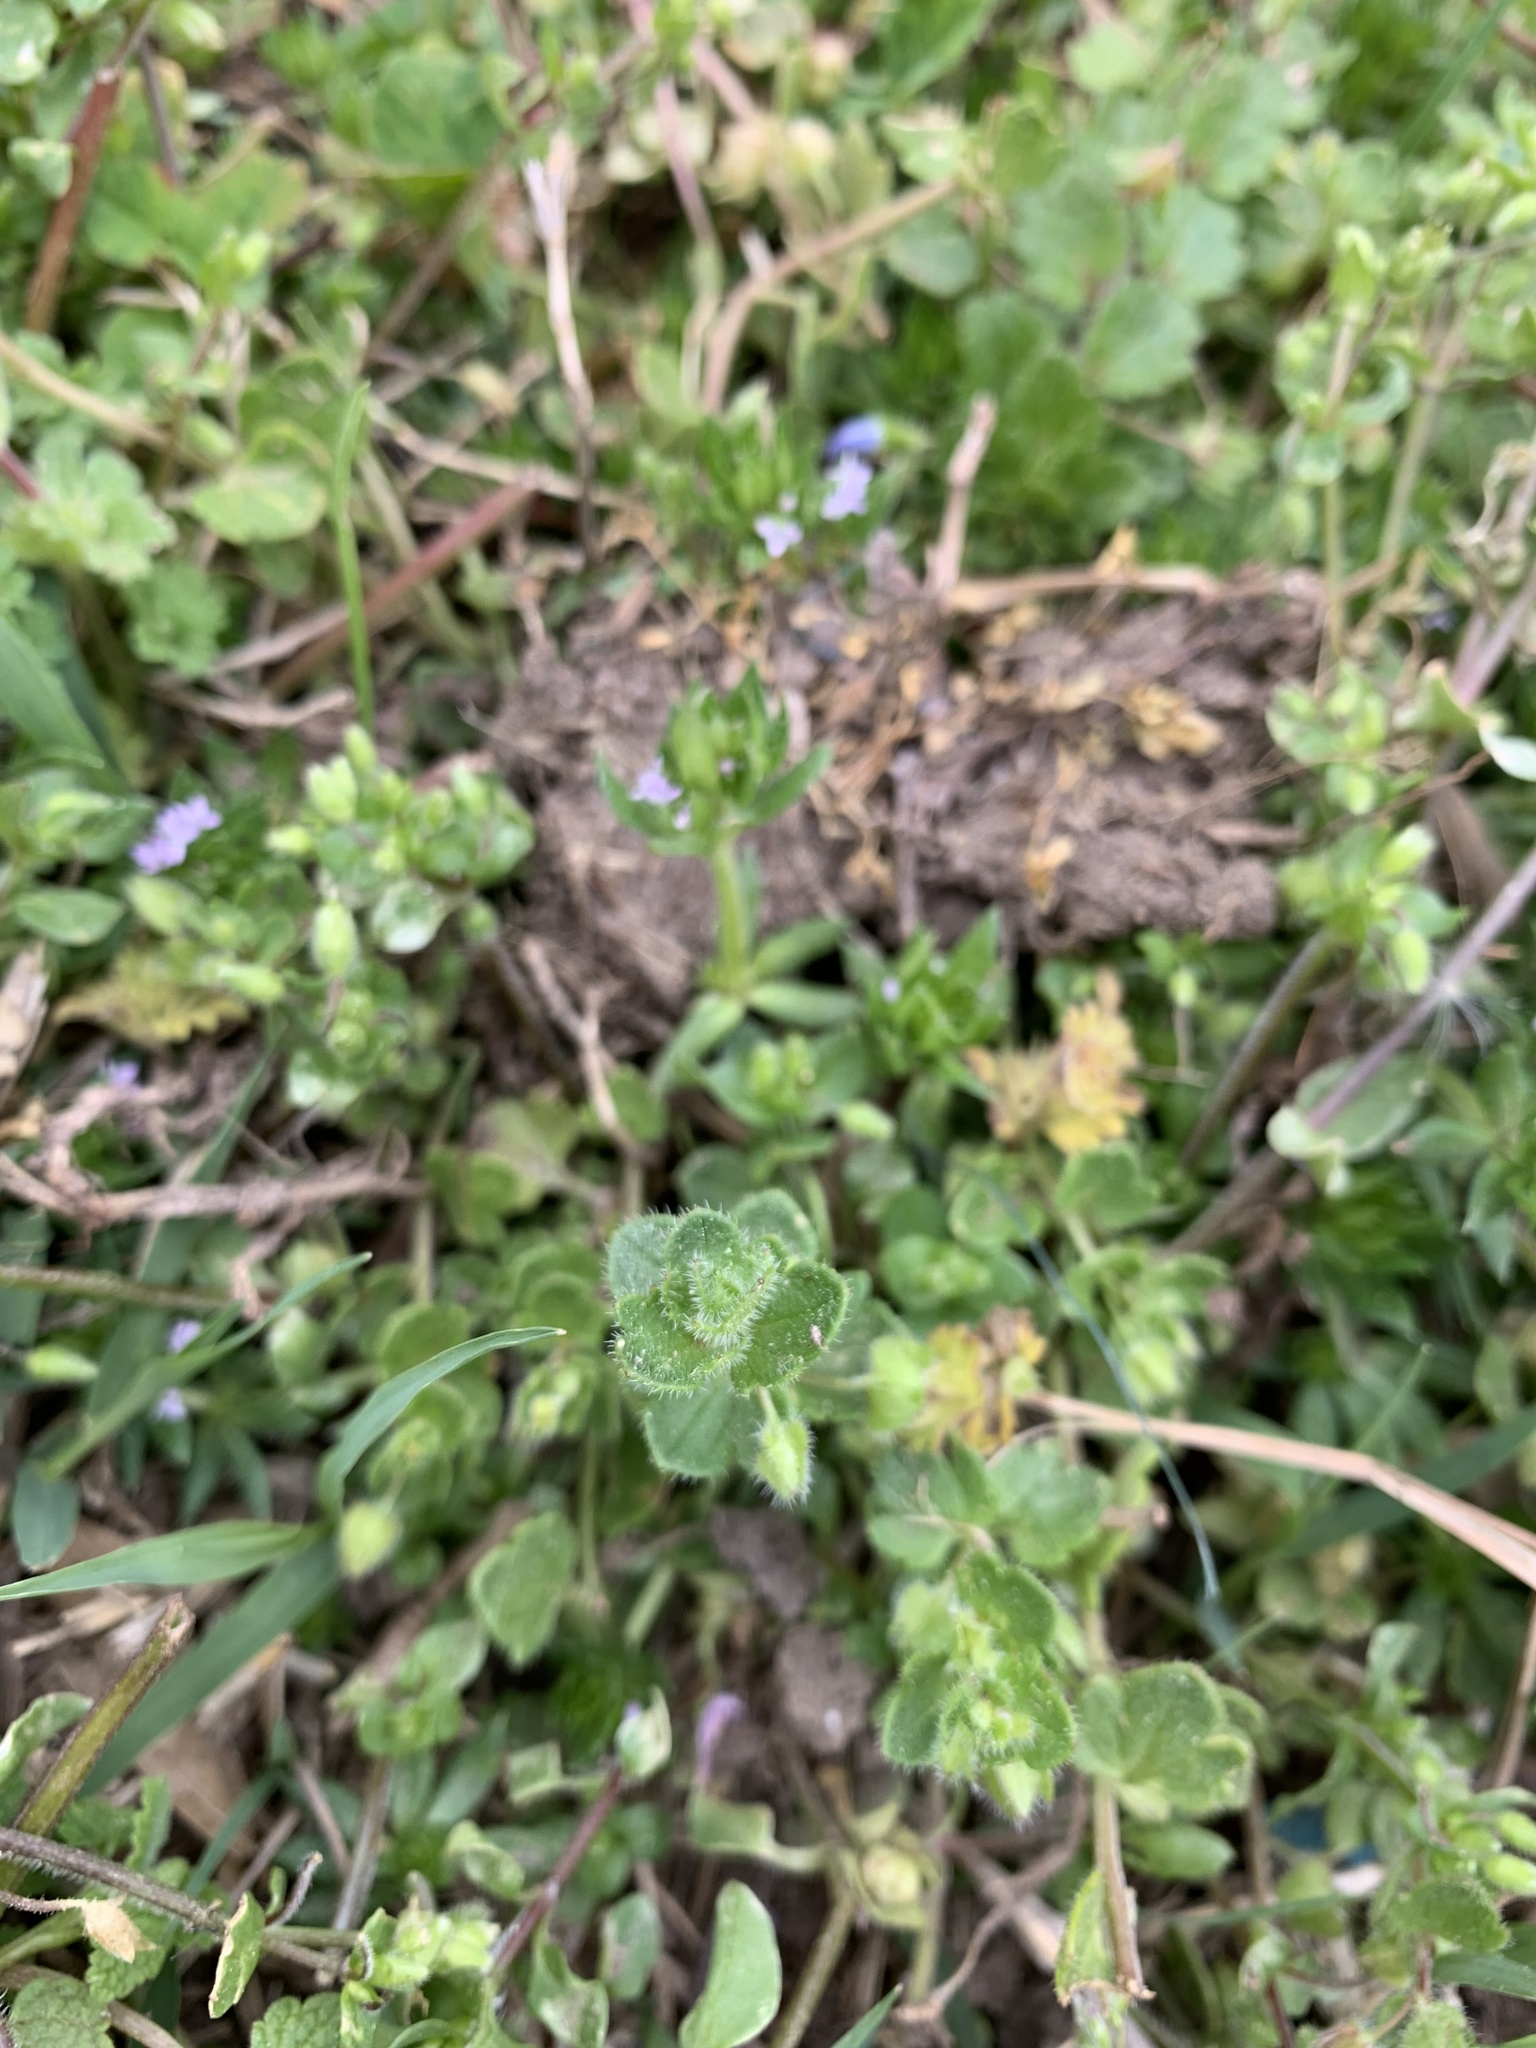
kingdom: Plantae
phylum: Tracheophyta
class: Magnoliopsida
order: Lamiales
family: Plantaginaceae
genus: Veronica
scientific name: Veronica hederifolia
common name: Ivy-leaved speedwell
